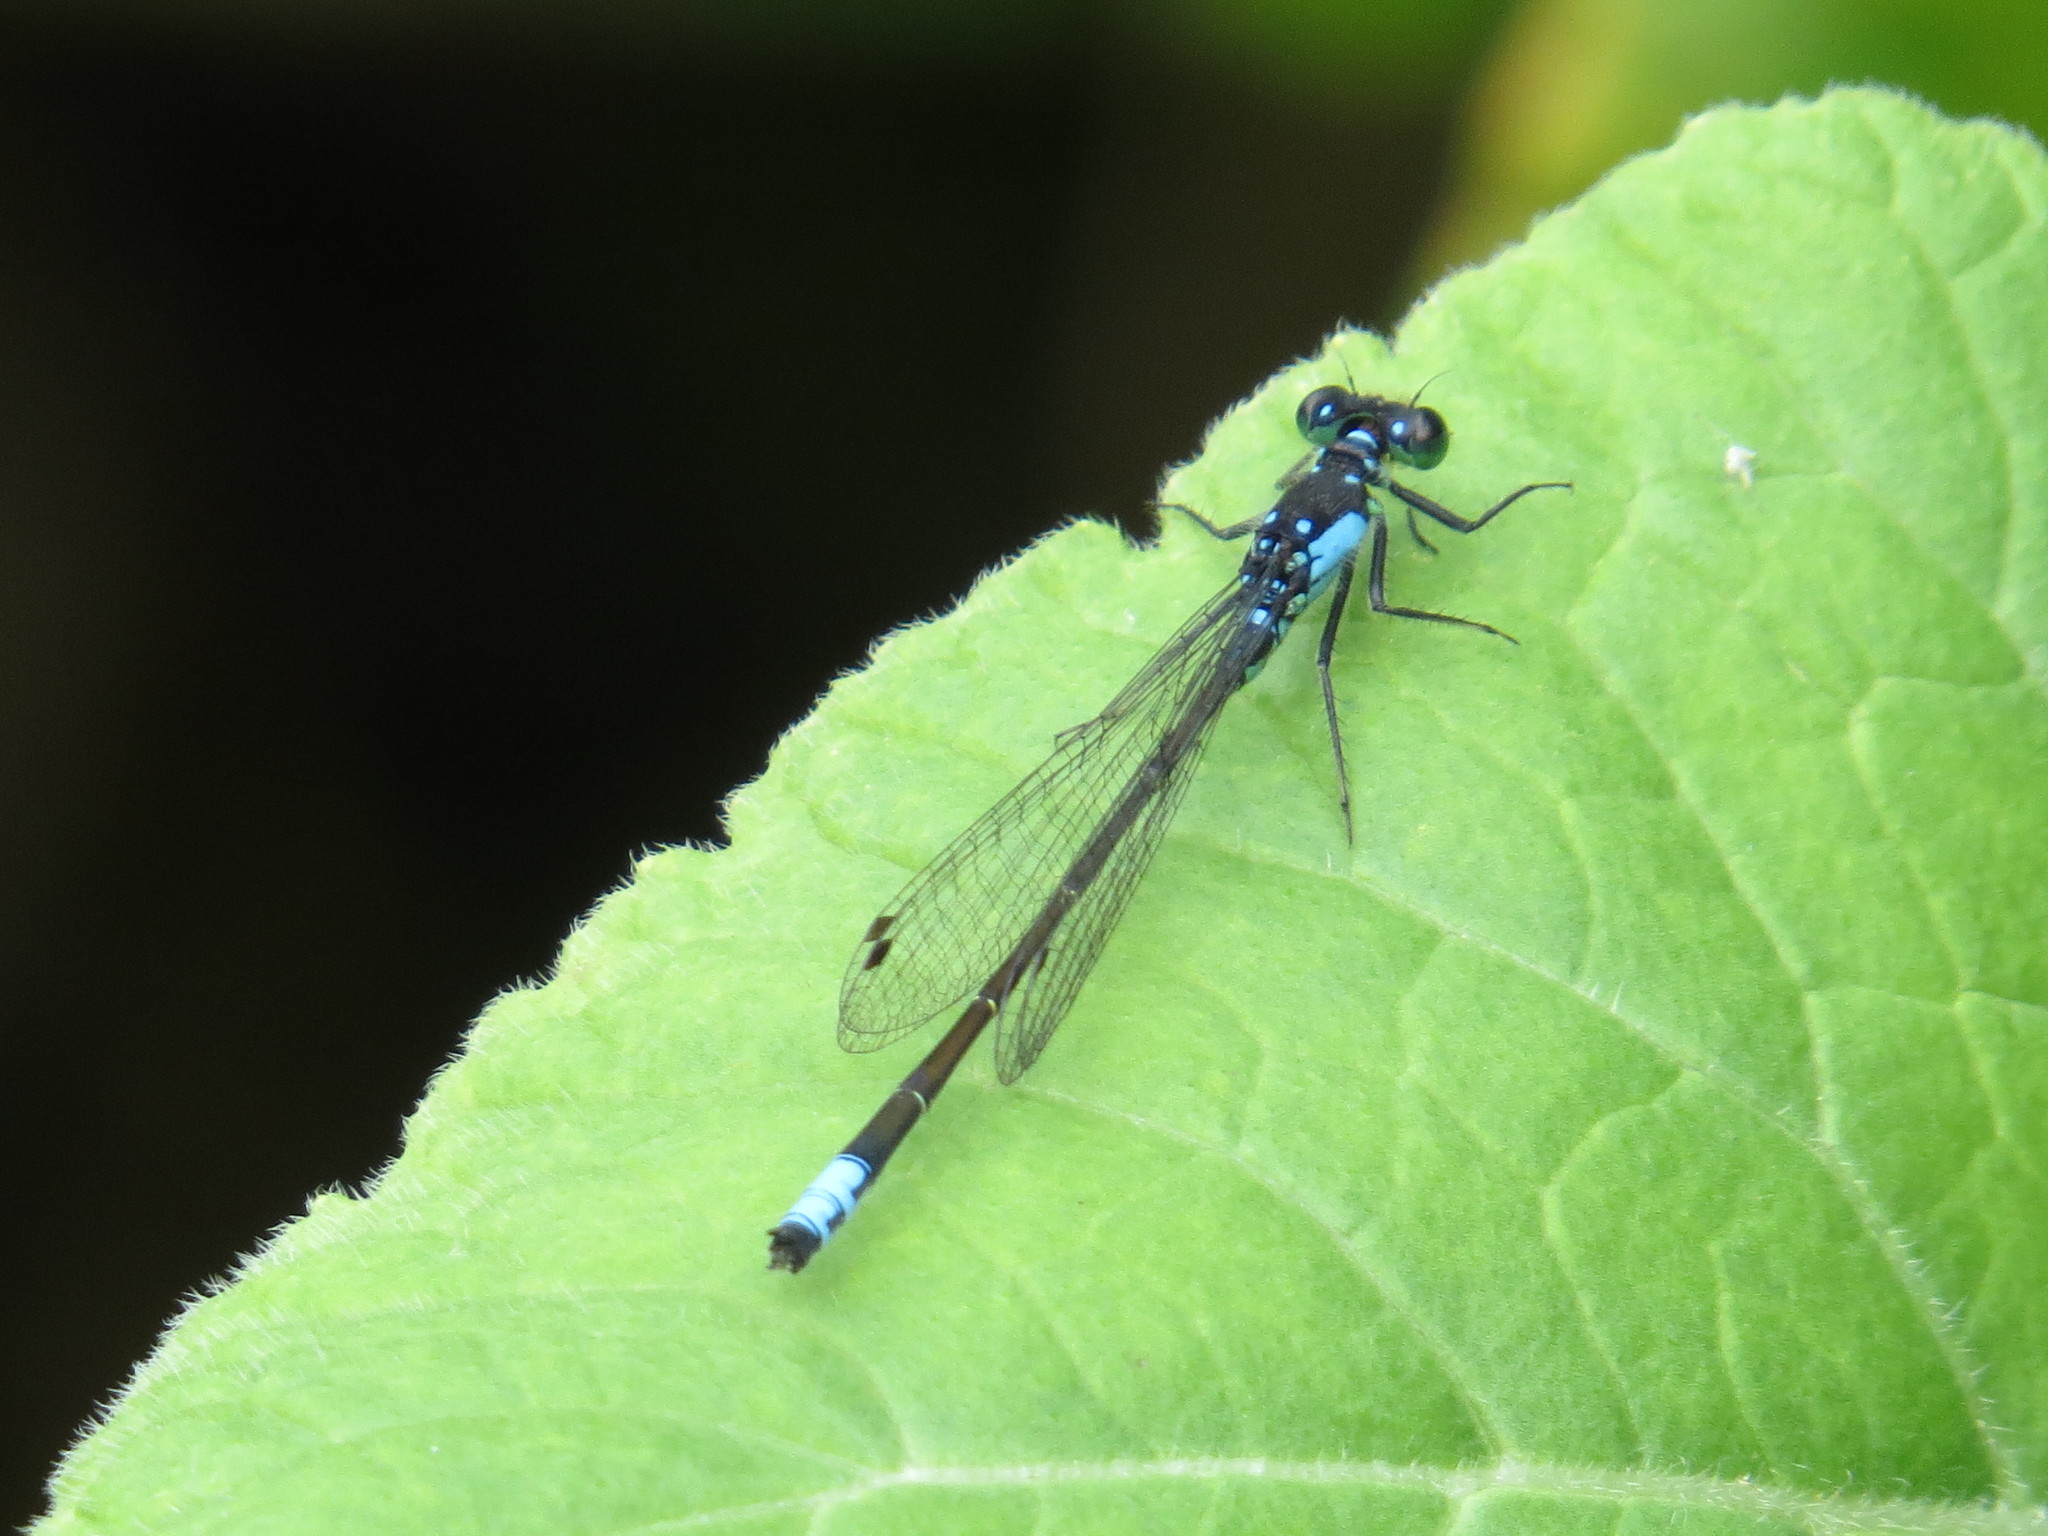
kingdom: Animalia
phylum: Arthropoda
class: Insecta
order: Odonata
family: Coenagrionidae
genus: Ischnura
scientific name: Ischnura cervula
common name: Pacific forktail
